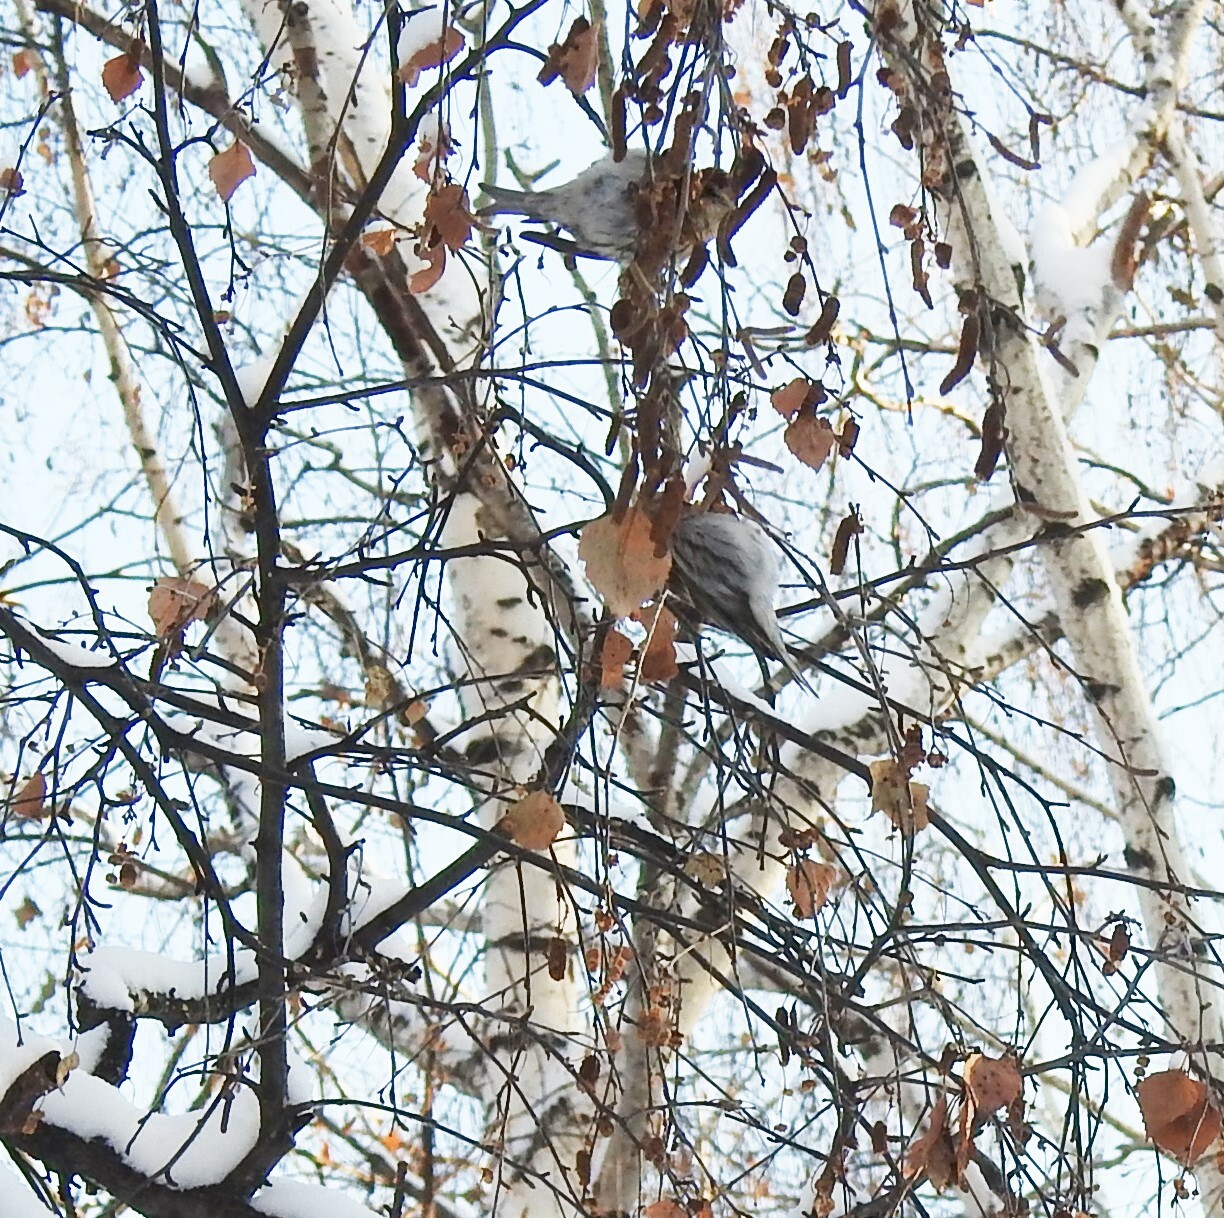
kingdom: Animalia
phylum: Chordata
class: Aves
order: Passeriformes
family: Fringillidae
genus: Acanthis
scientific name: Acanthis flammea
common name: Common redpoll
